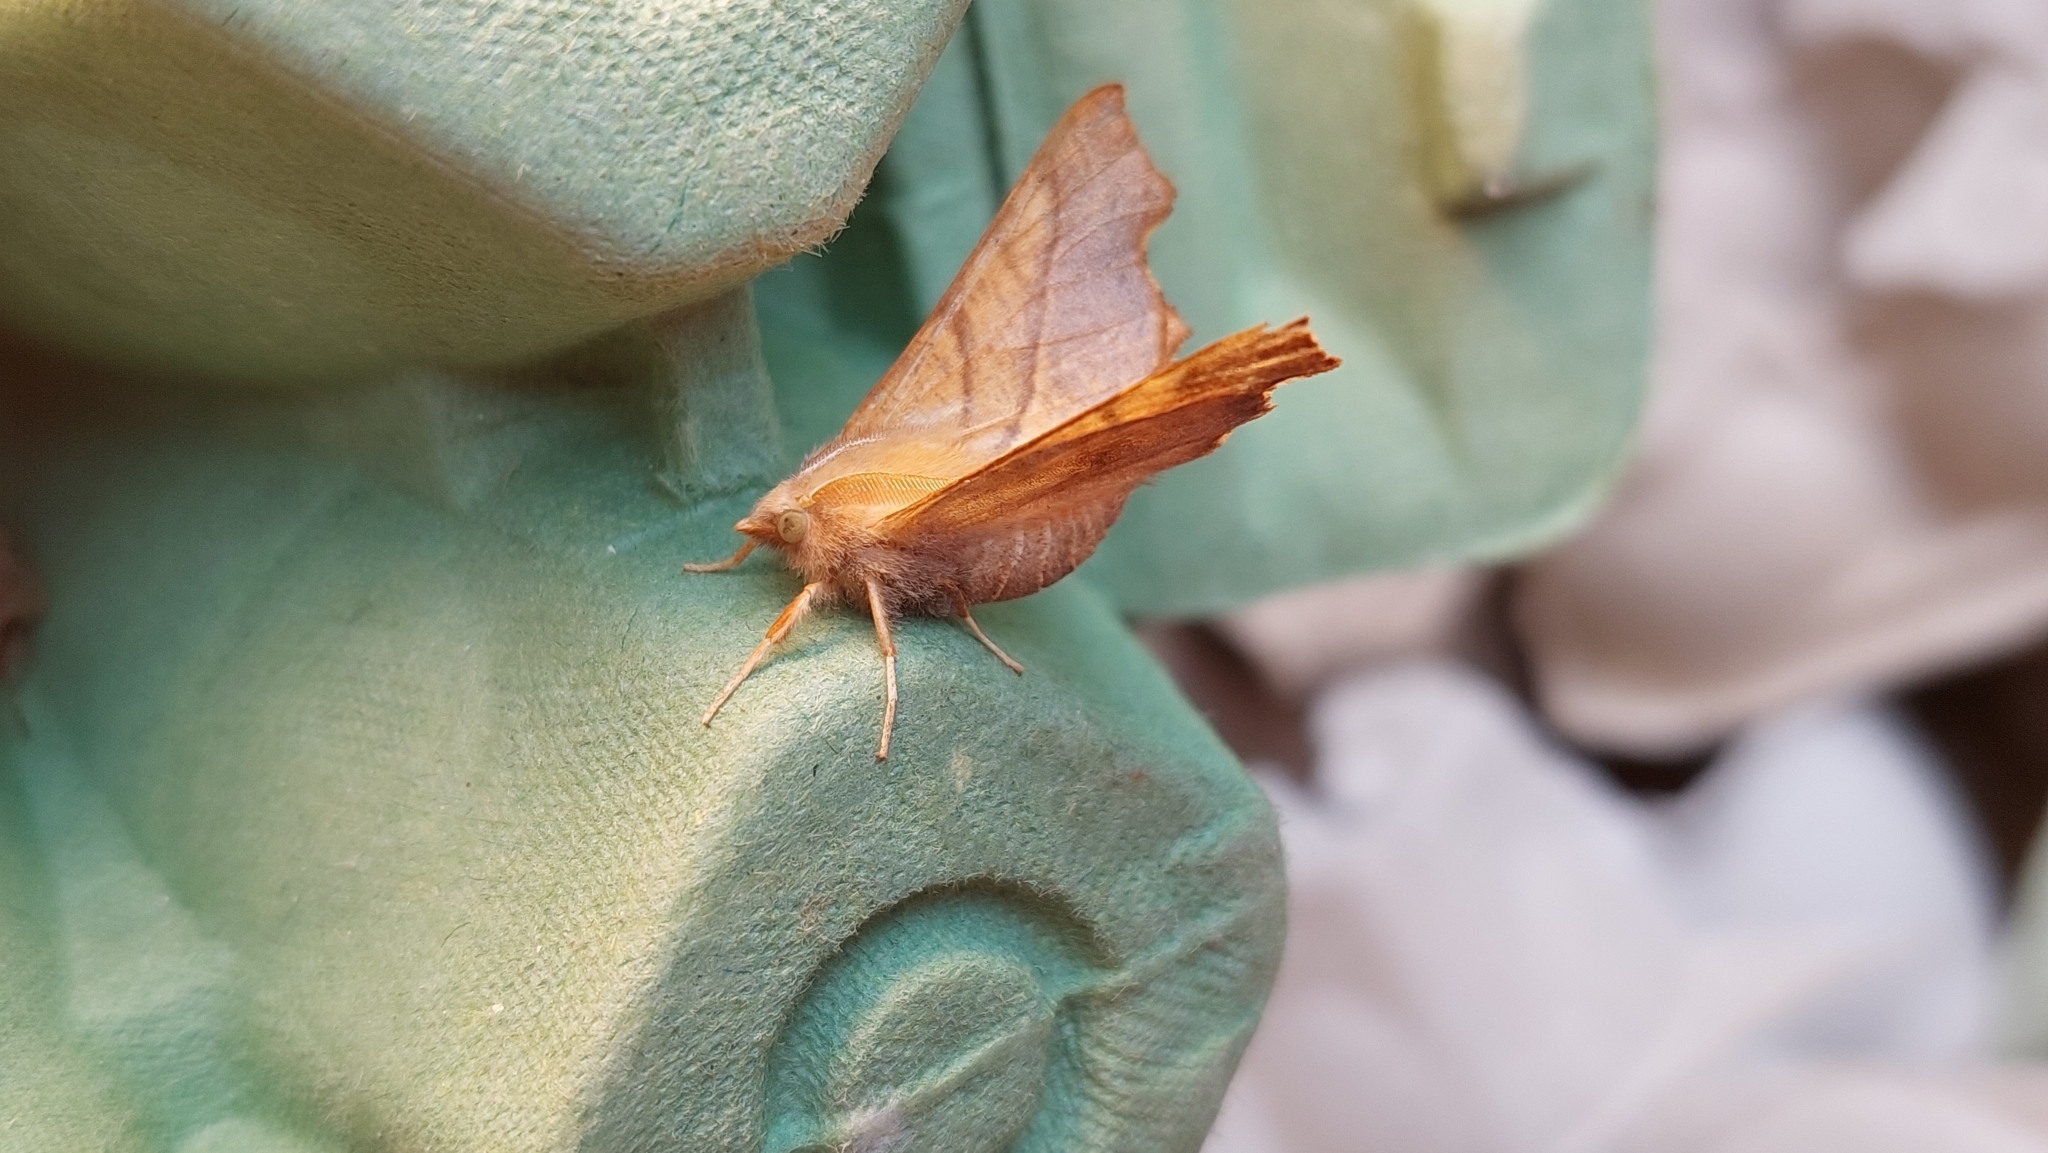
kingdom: Animalia
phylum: Arthropoda
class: Insecta
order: Lepidoptera
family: Geometridae
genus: Ennomos
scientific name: Ennomos fuscantaria
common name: Dusky thorn
